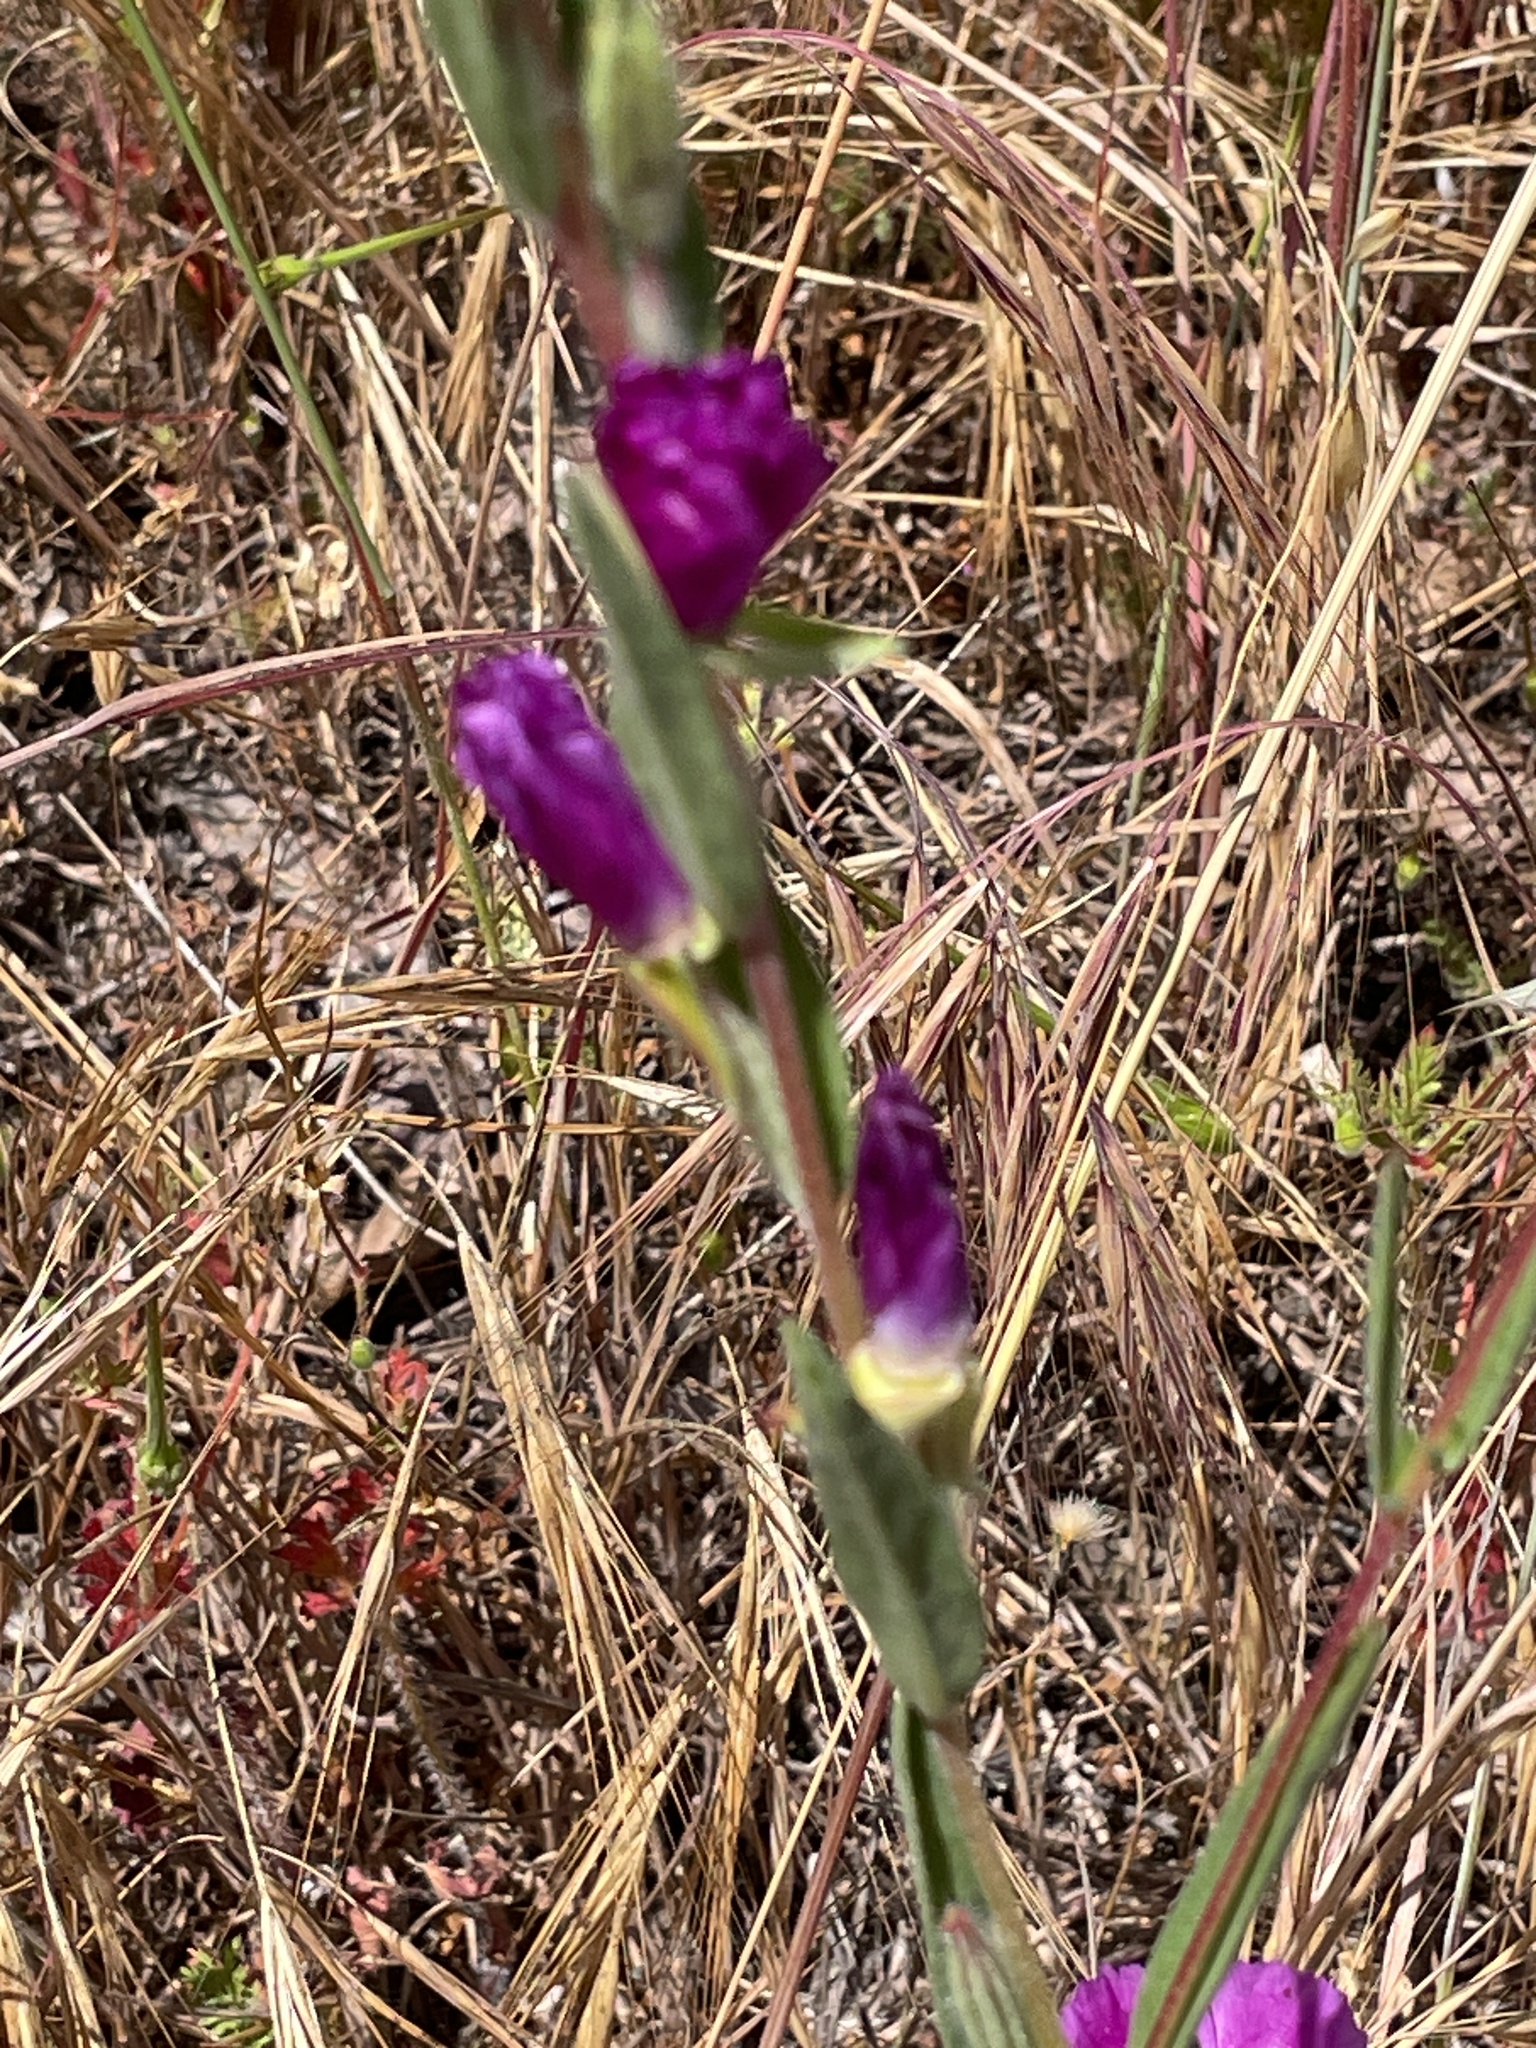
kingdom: Plantae
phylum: Tracheophyta
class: Magnoliopsida
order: Myrtales
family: Onagraceae
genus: Clarkia
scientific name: Clarkia purpurea
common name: Purple clarkia
